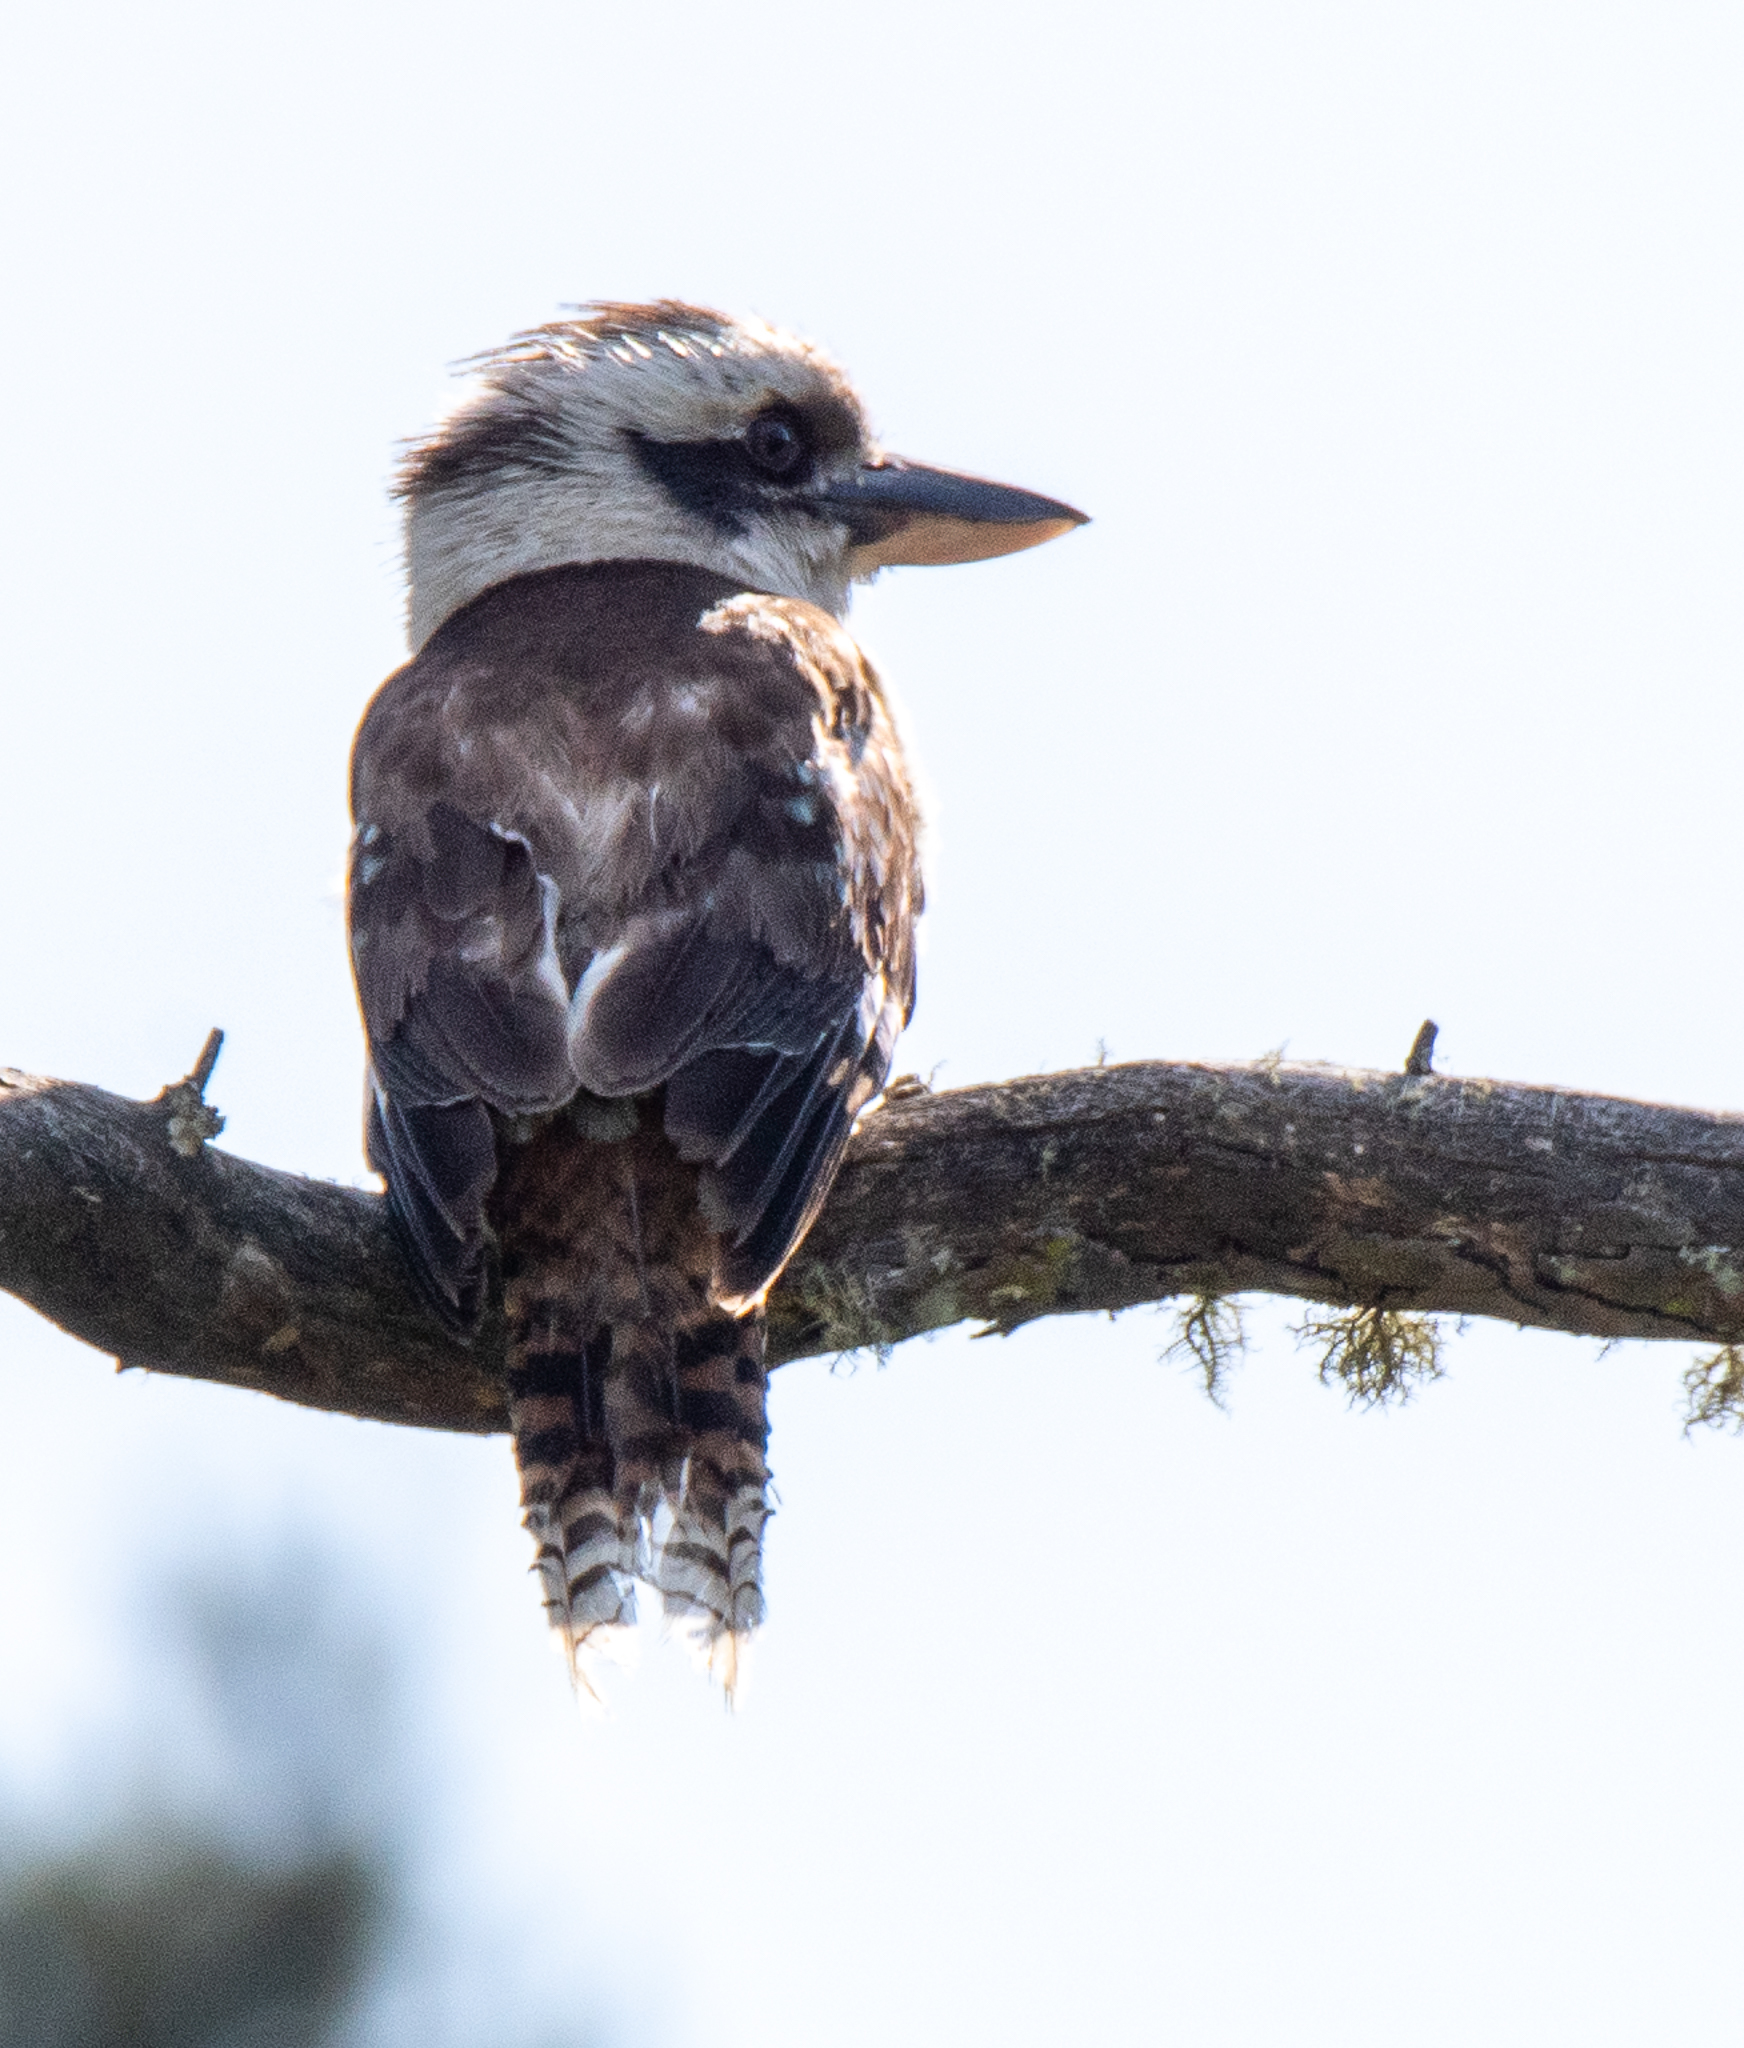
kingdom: Animalia
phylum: Chordata
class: Aves
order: Coraciiformes
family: Alcedinidae
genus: Dacelo
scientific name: Dacelo novaeguineae
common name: Laughing kookaburra
